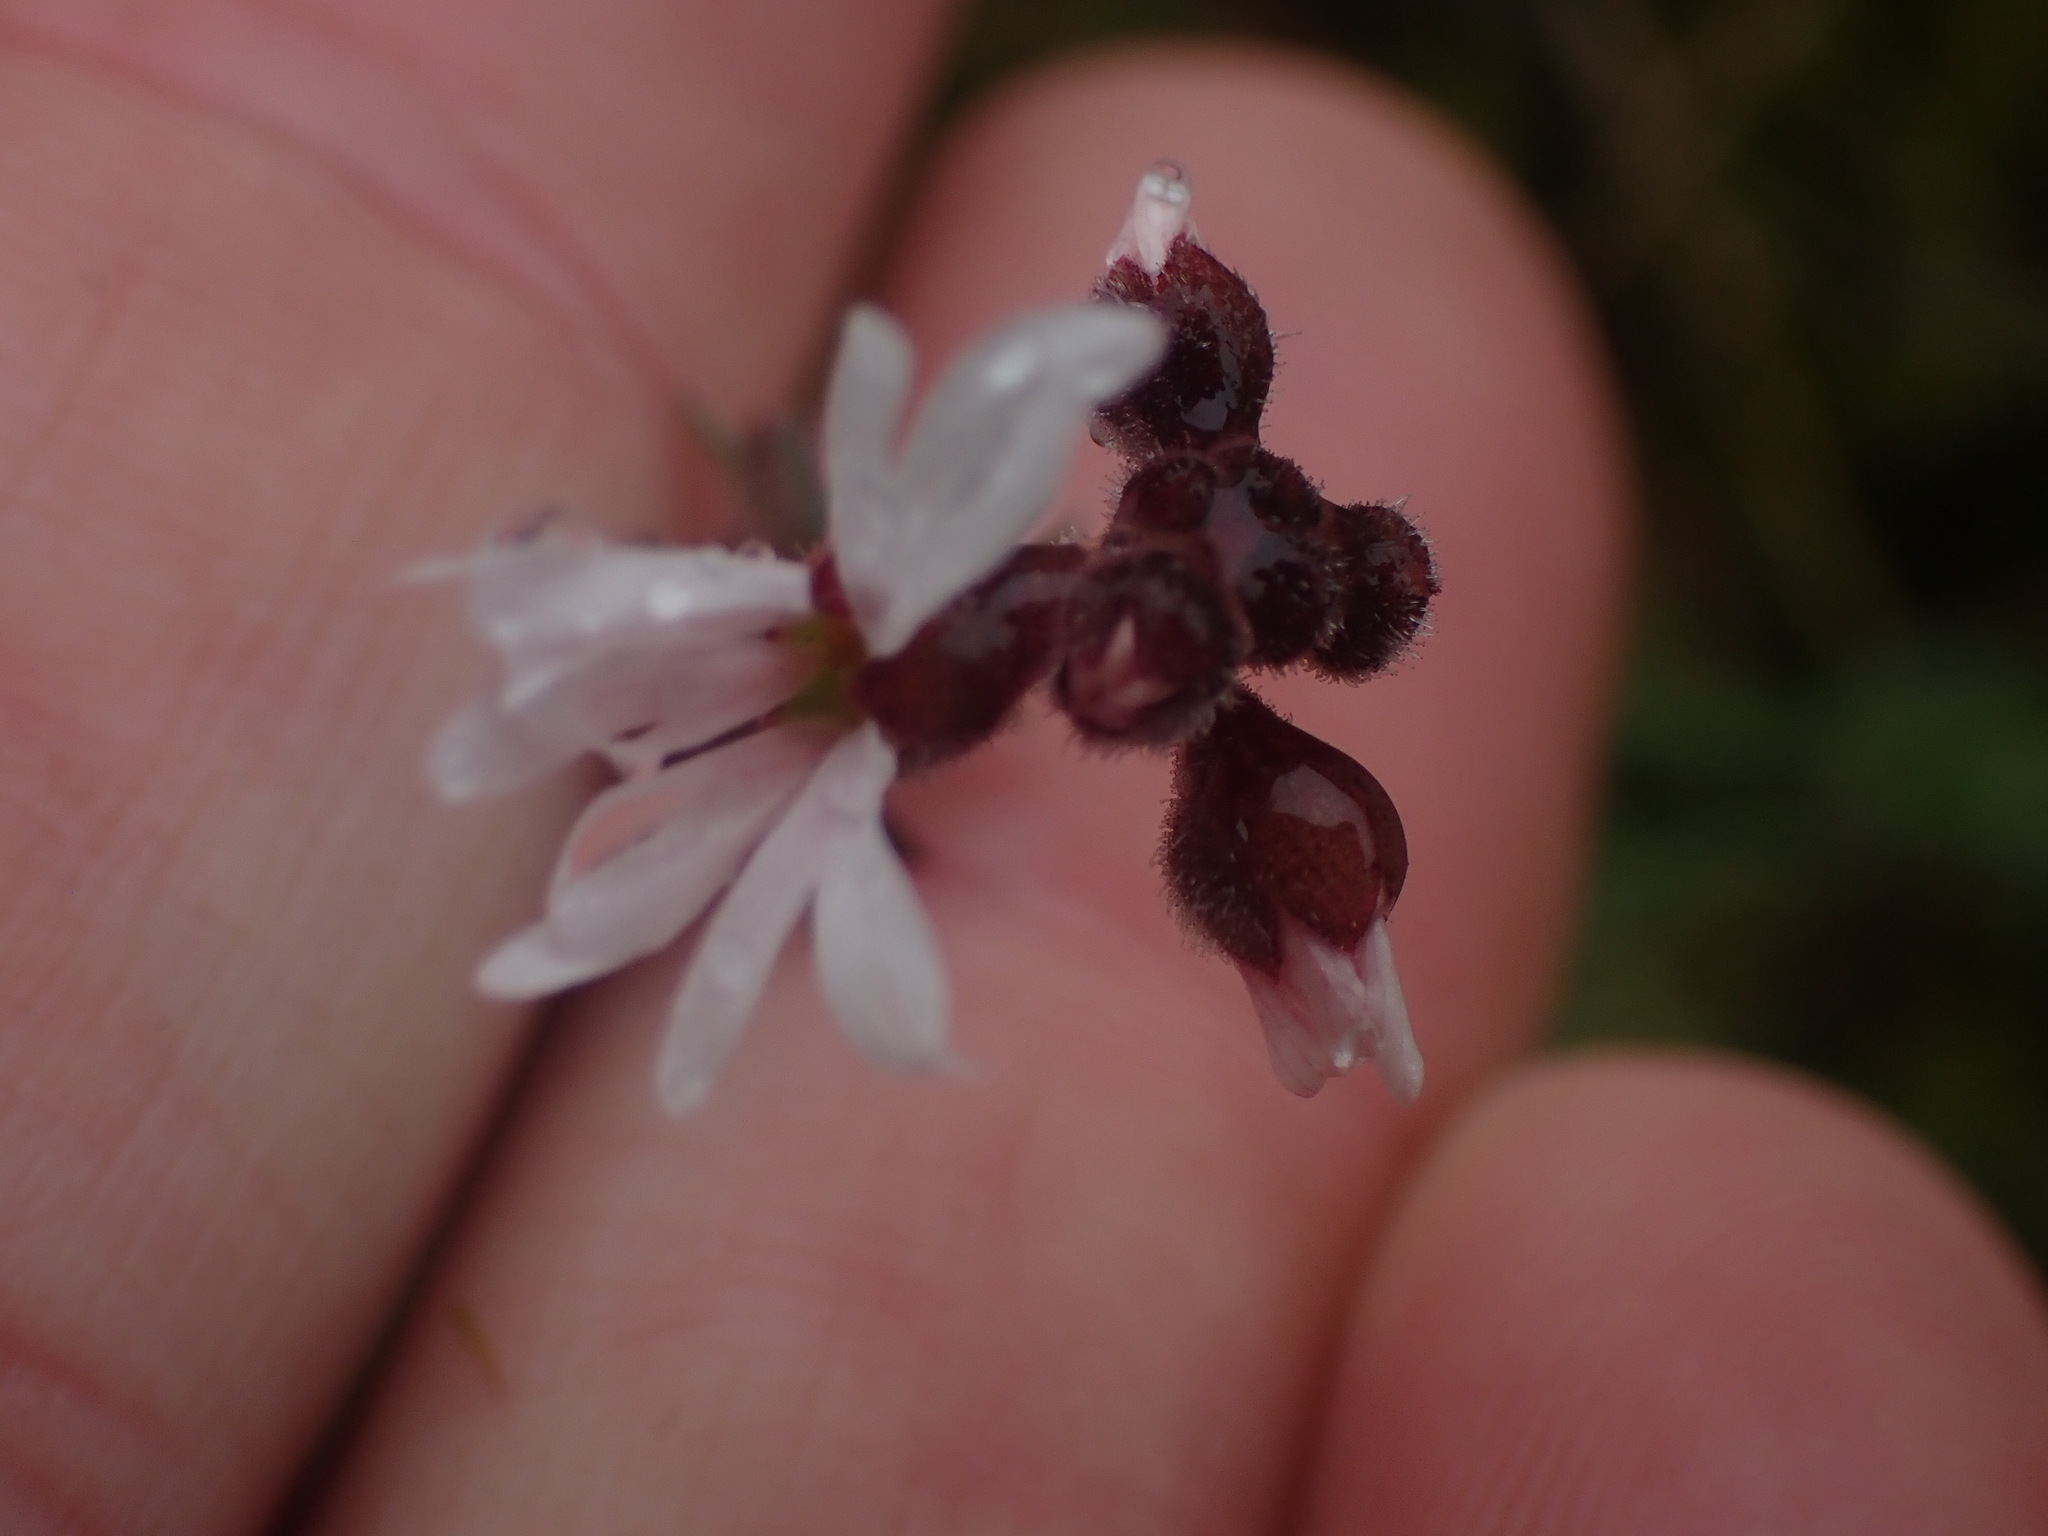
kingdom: Plantae
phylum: Tracheophyta
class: Magnoliopsida
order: Saxifragales
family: Saxifragaceae
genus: Lithophragma
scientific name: Lithophragma parviflorum
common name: Small-flowered fringe-cup
